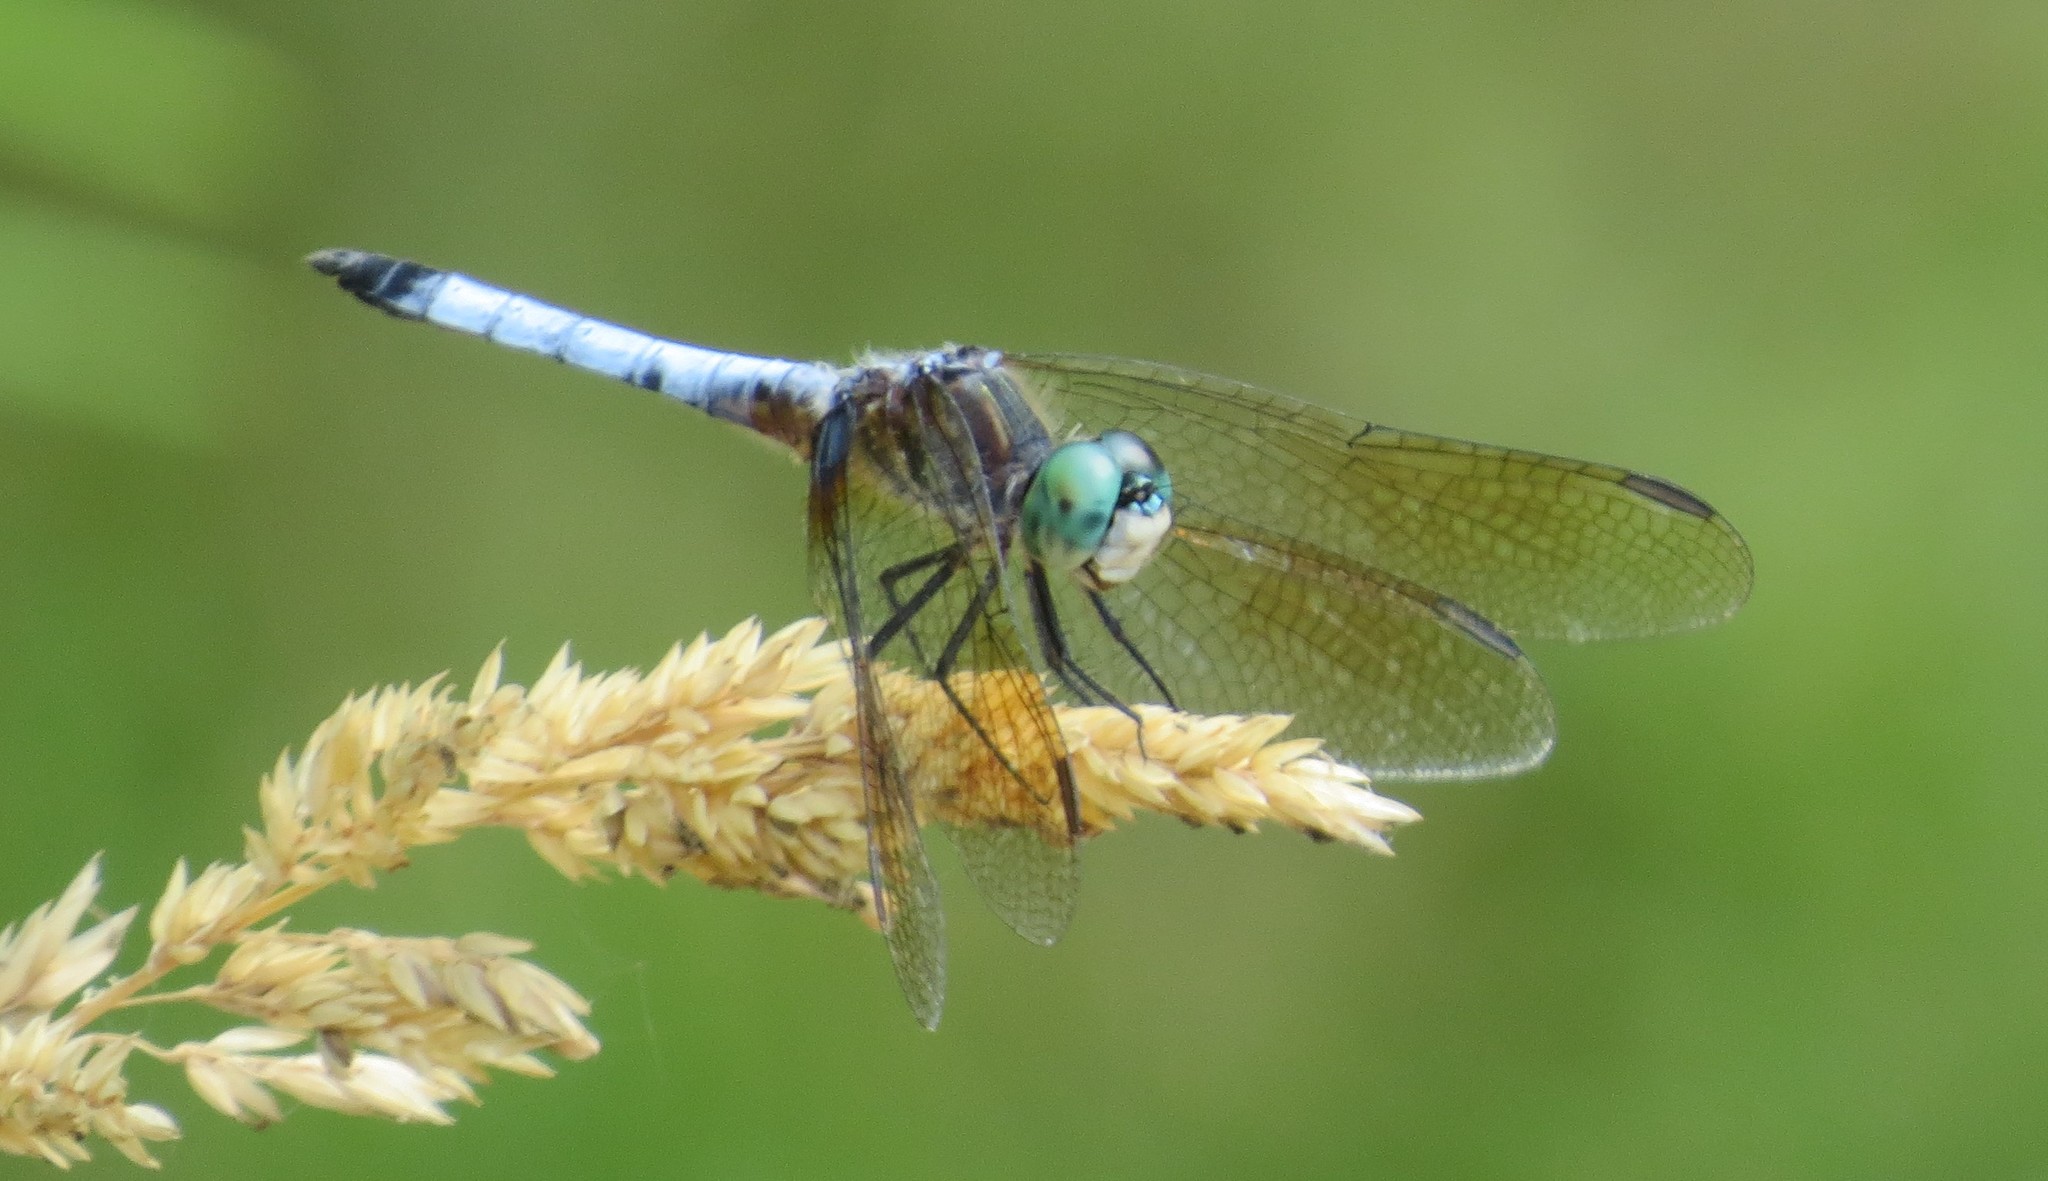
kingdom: Animalia
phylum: Arthropoda
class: Insecta
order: Odonata
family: Libellulidae
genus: Pachydiplax
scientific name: Pachydiplax longipennis
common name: Blue dasher
